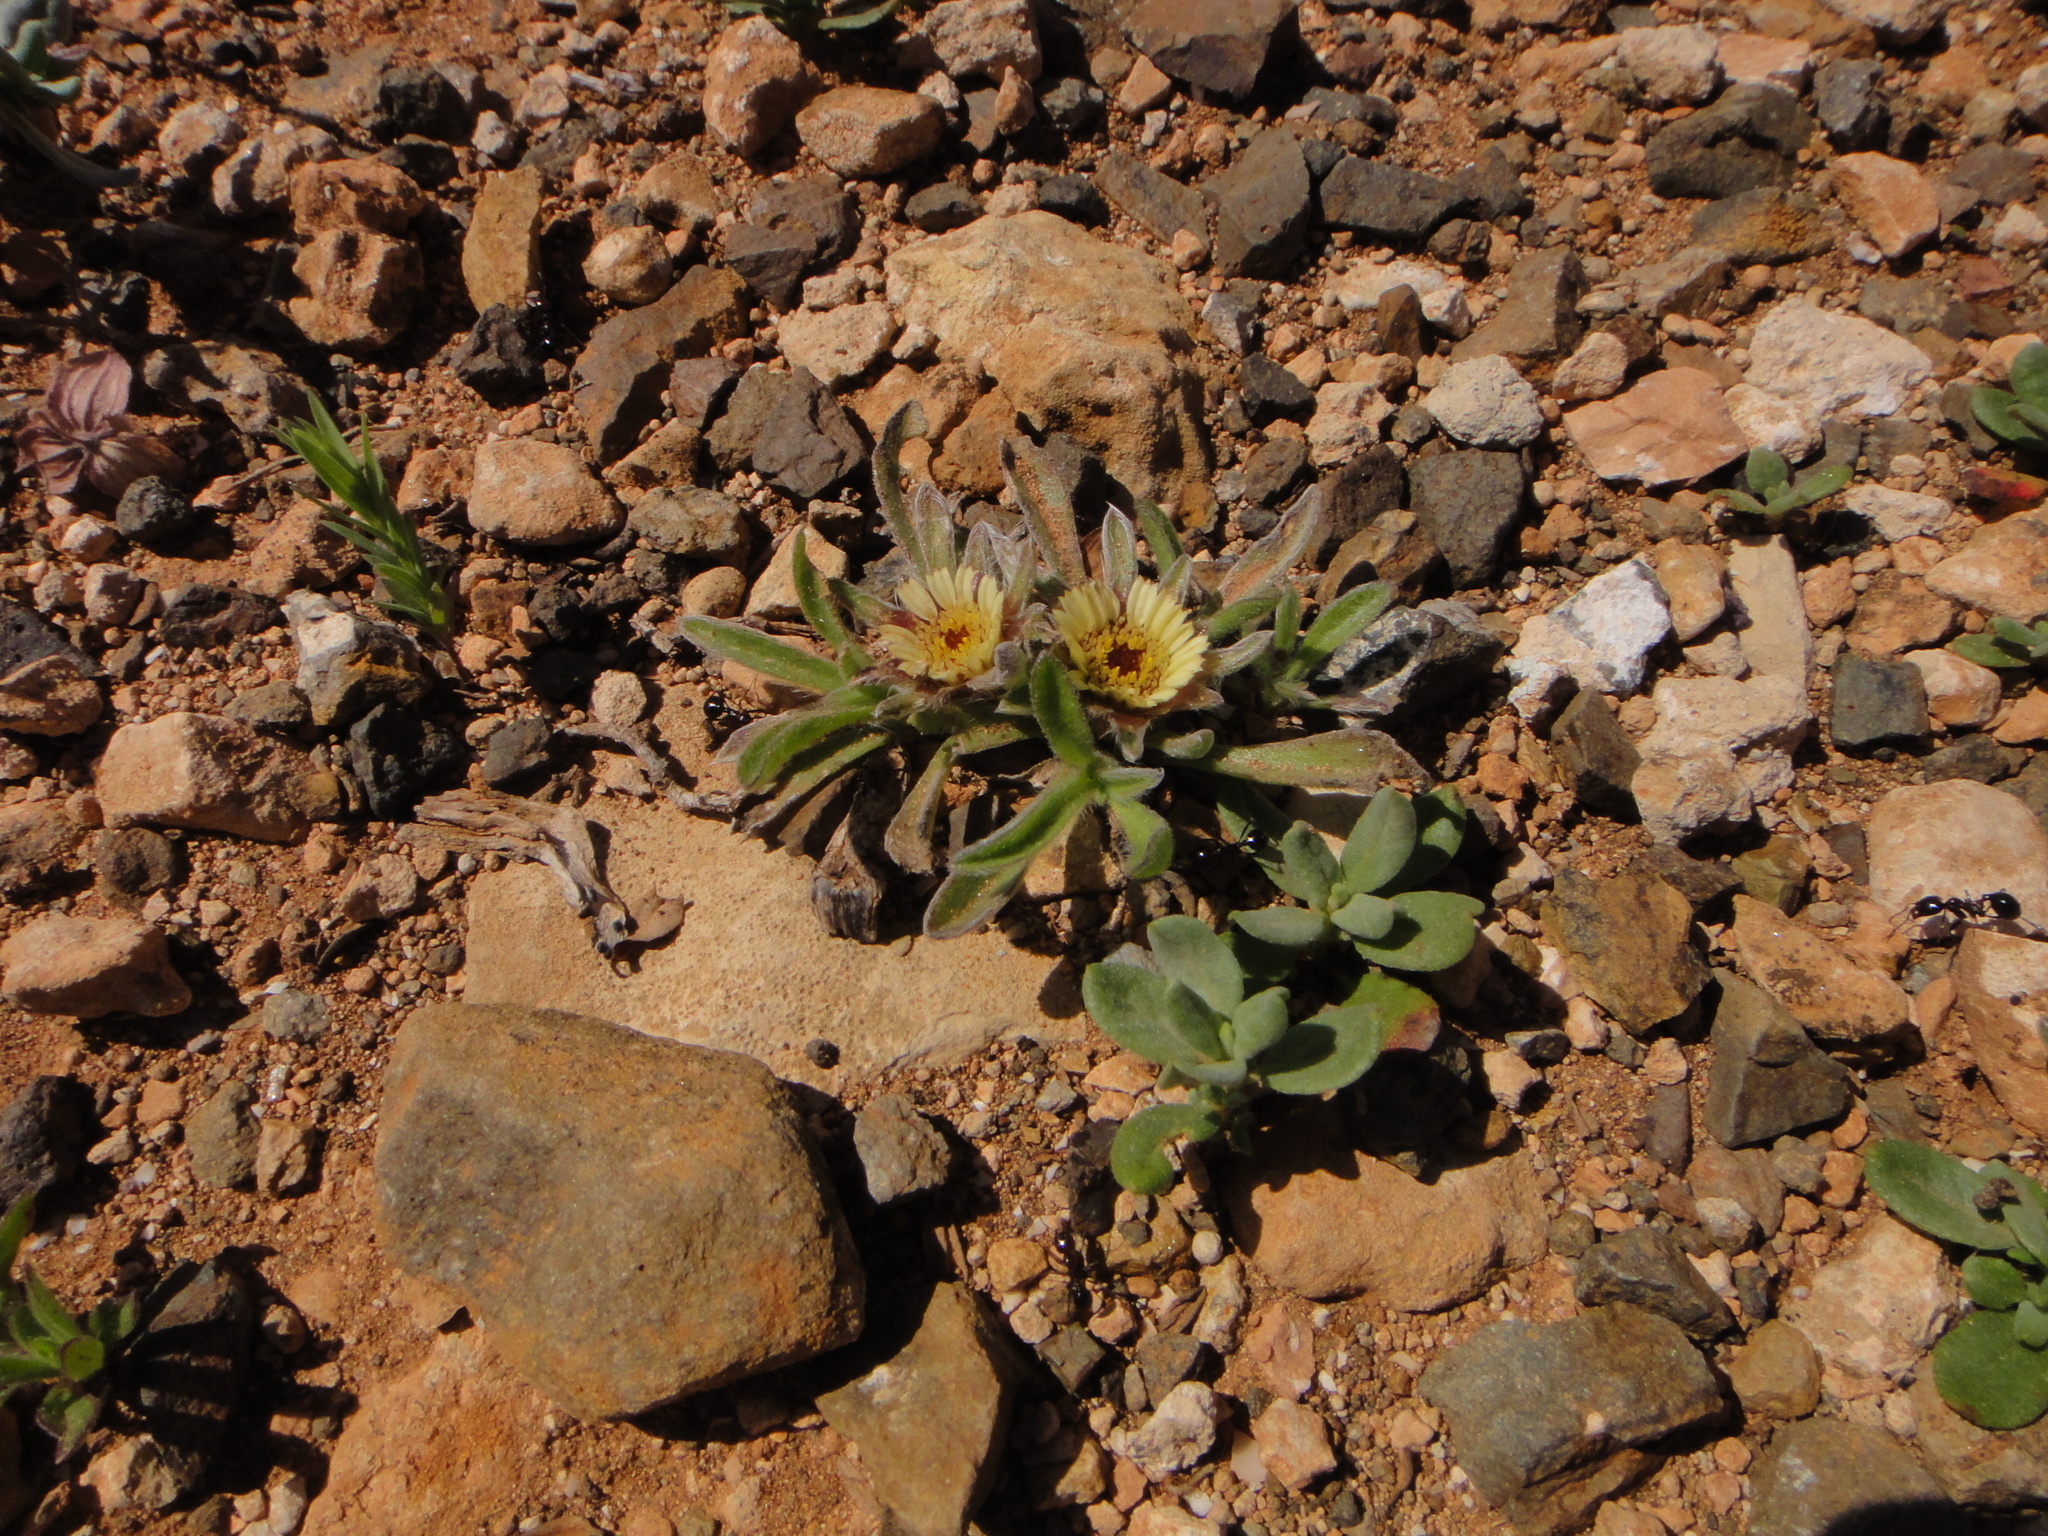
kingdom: Plantae
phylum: Tracheophyta
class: Magnoliopsida
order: Asterales
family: Asteraceae
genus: Pallenis
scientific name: Pallenis hierochuntica
